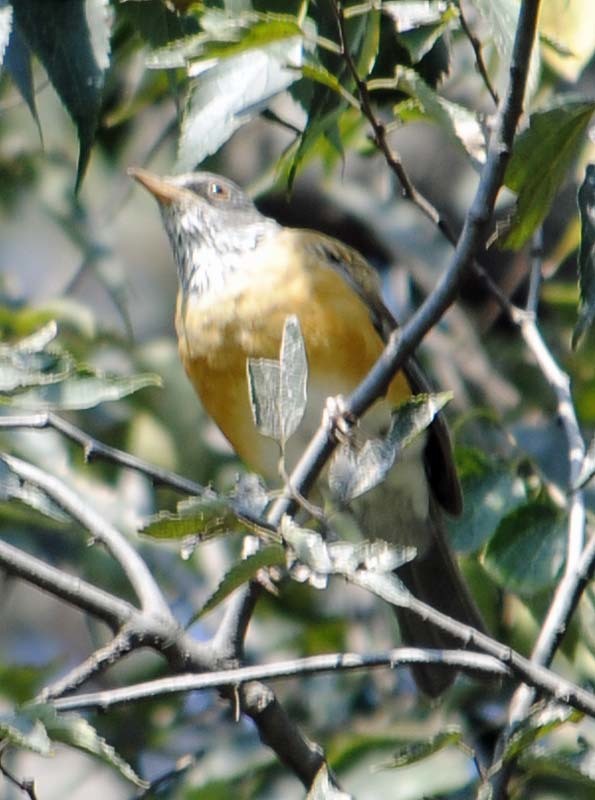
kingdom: Animalia
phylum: Chordata
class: Aves
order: Passeriformes
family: Turdidae
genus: Turdus
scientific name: Turdus rufopalliatus
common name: Rufous-backed robin
